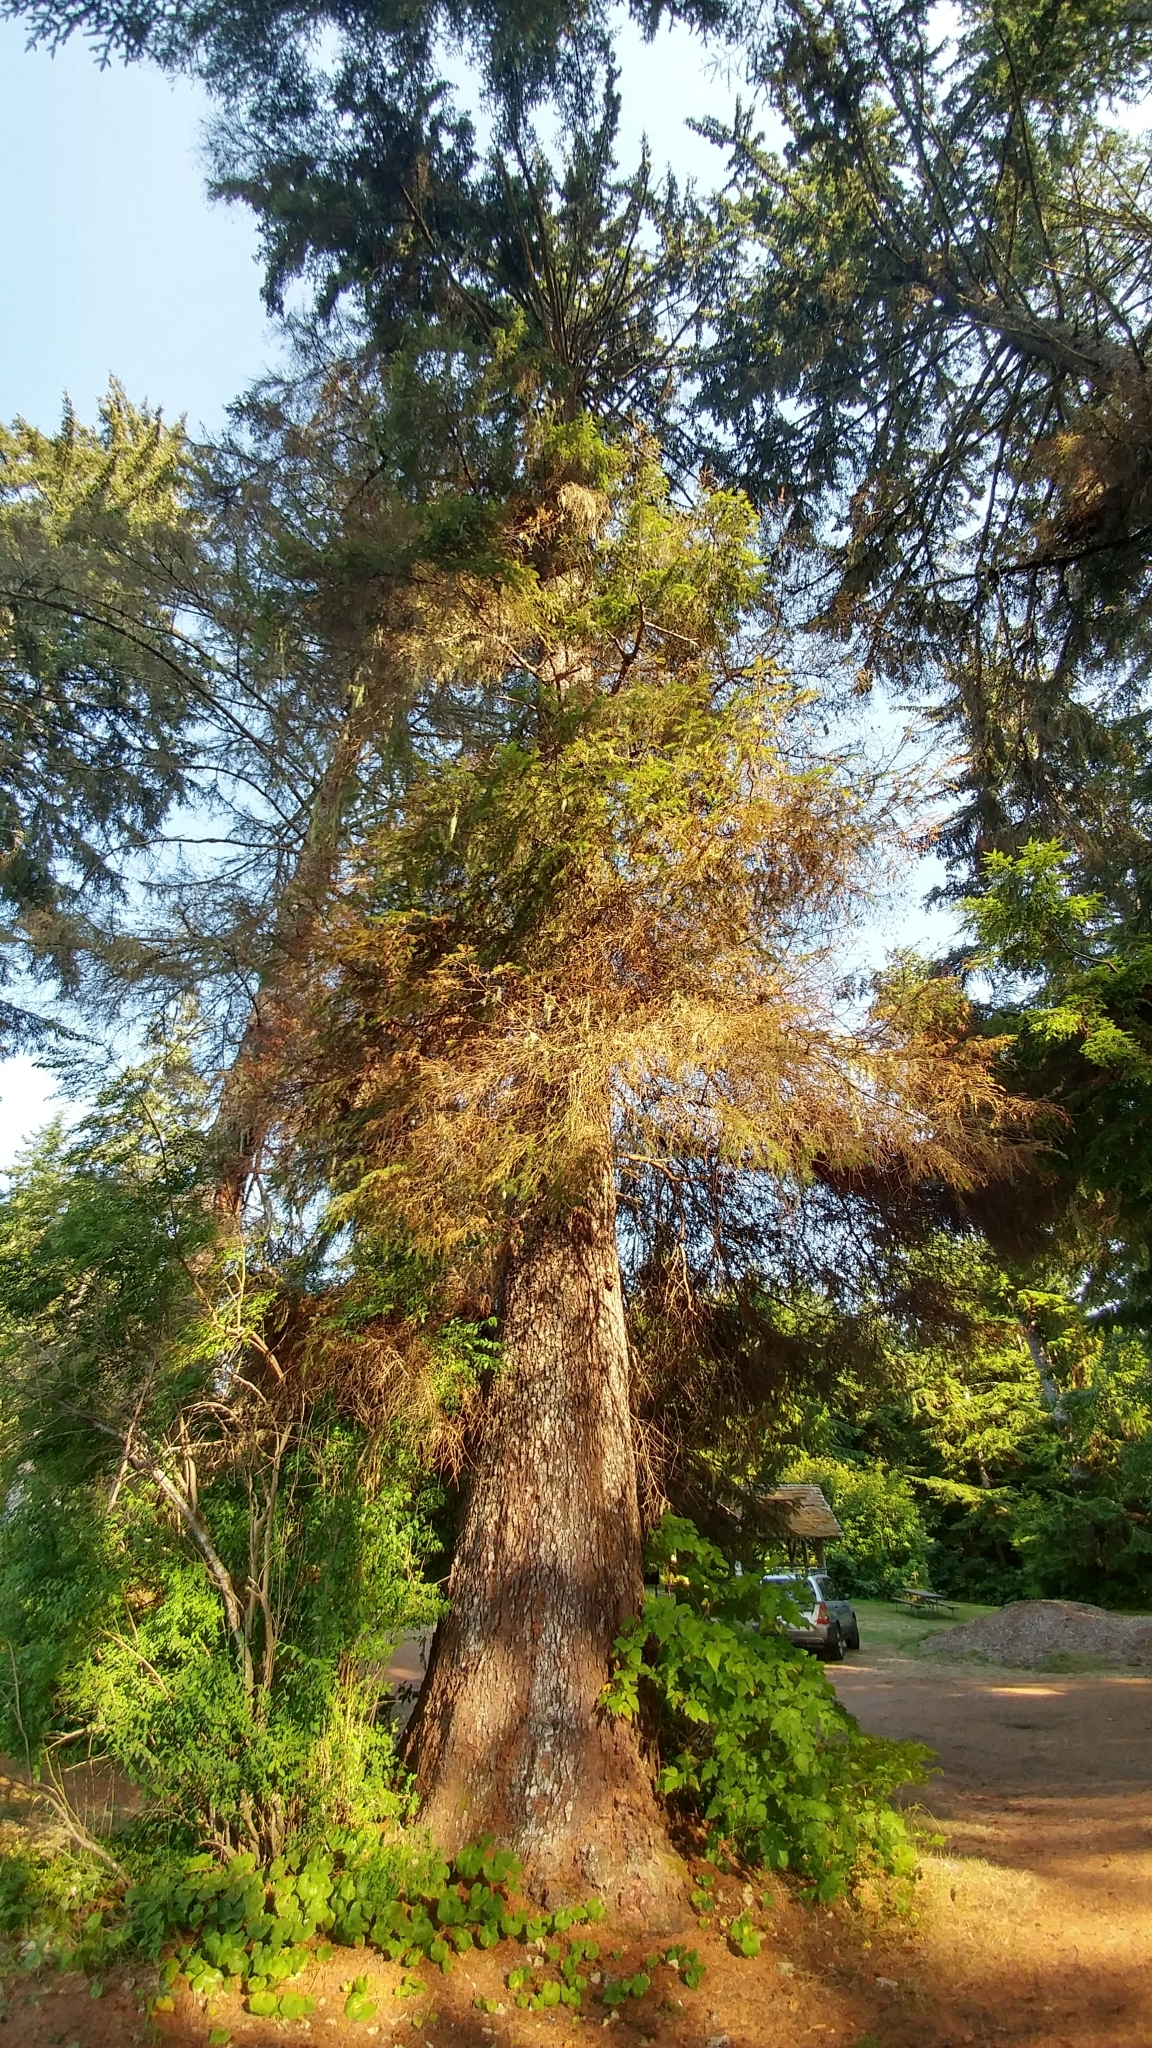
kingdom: Plantae
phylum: Tracheophyta
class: Pinopsida
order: Pinales
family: Pinaceae
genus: Picea
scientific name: Picea sitchensis
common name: Sitka spruce
